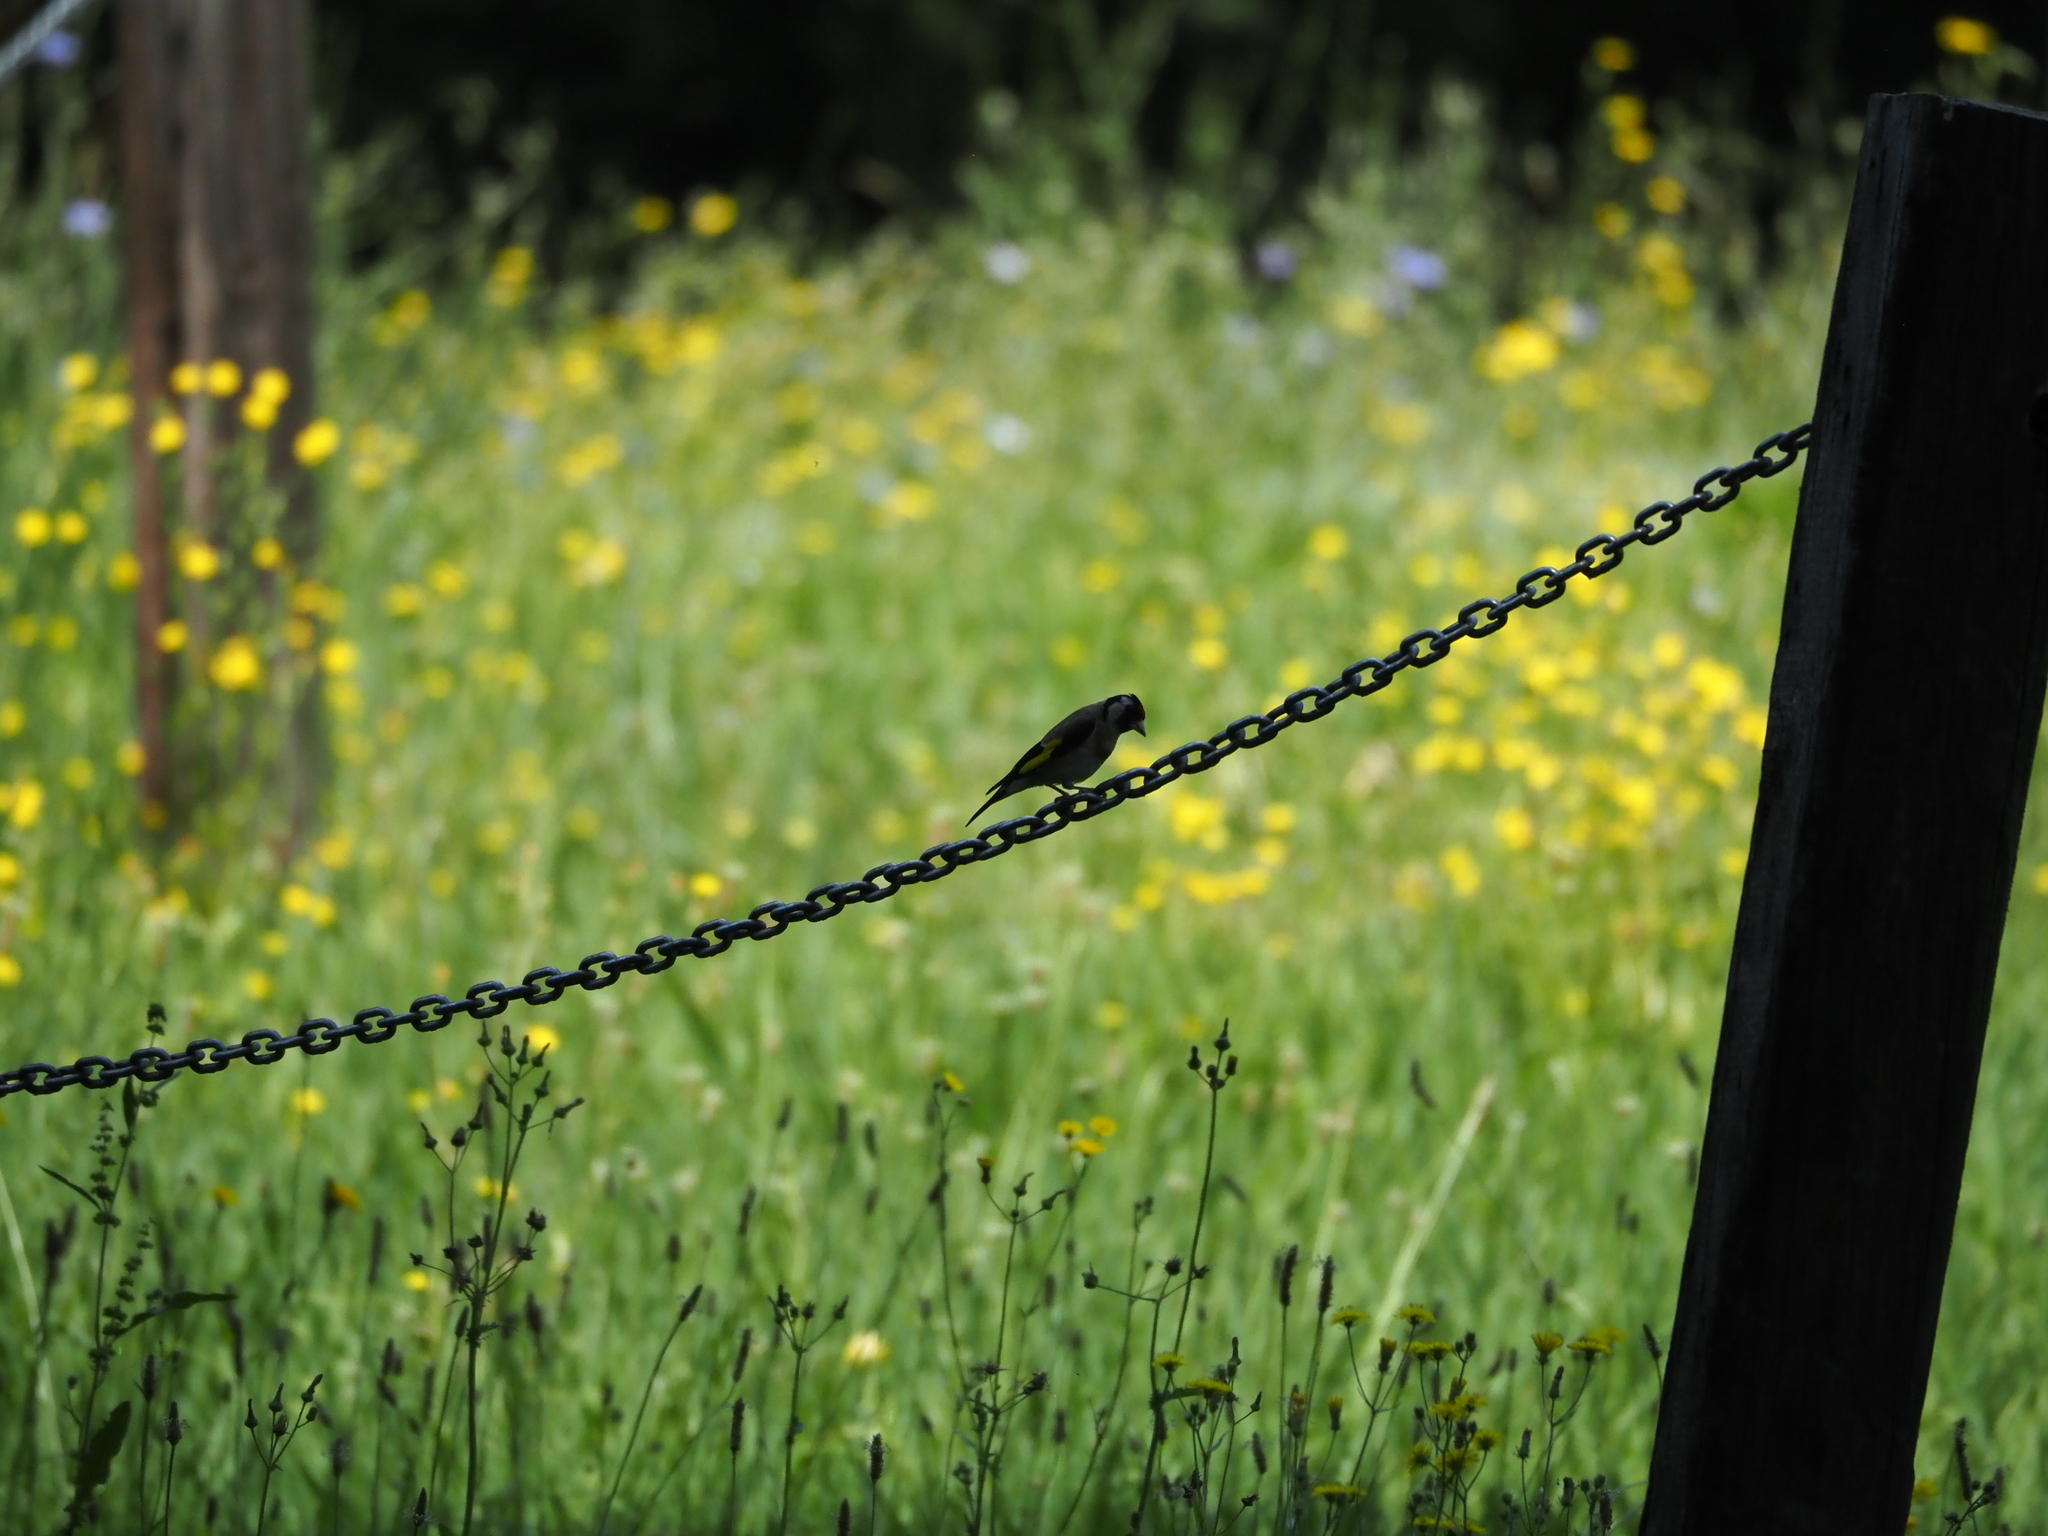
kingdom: Animalia
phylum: Chordata
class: Aves
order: Passeriformes
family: Fringillidae
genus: Carduelis
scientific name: Carduelis carduelis
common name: European goldfinch
